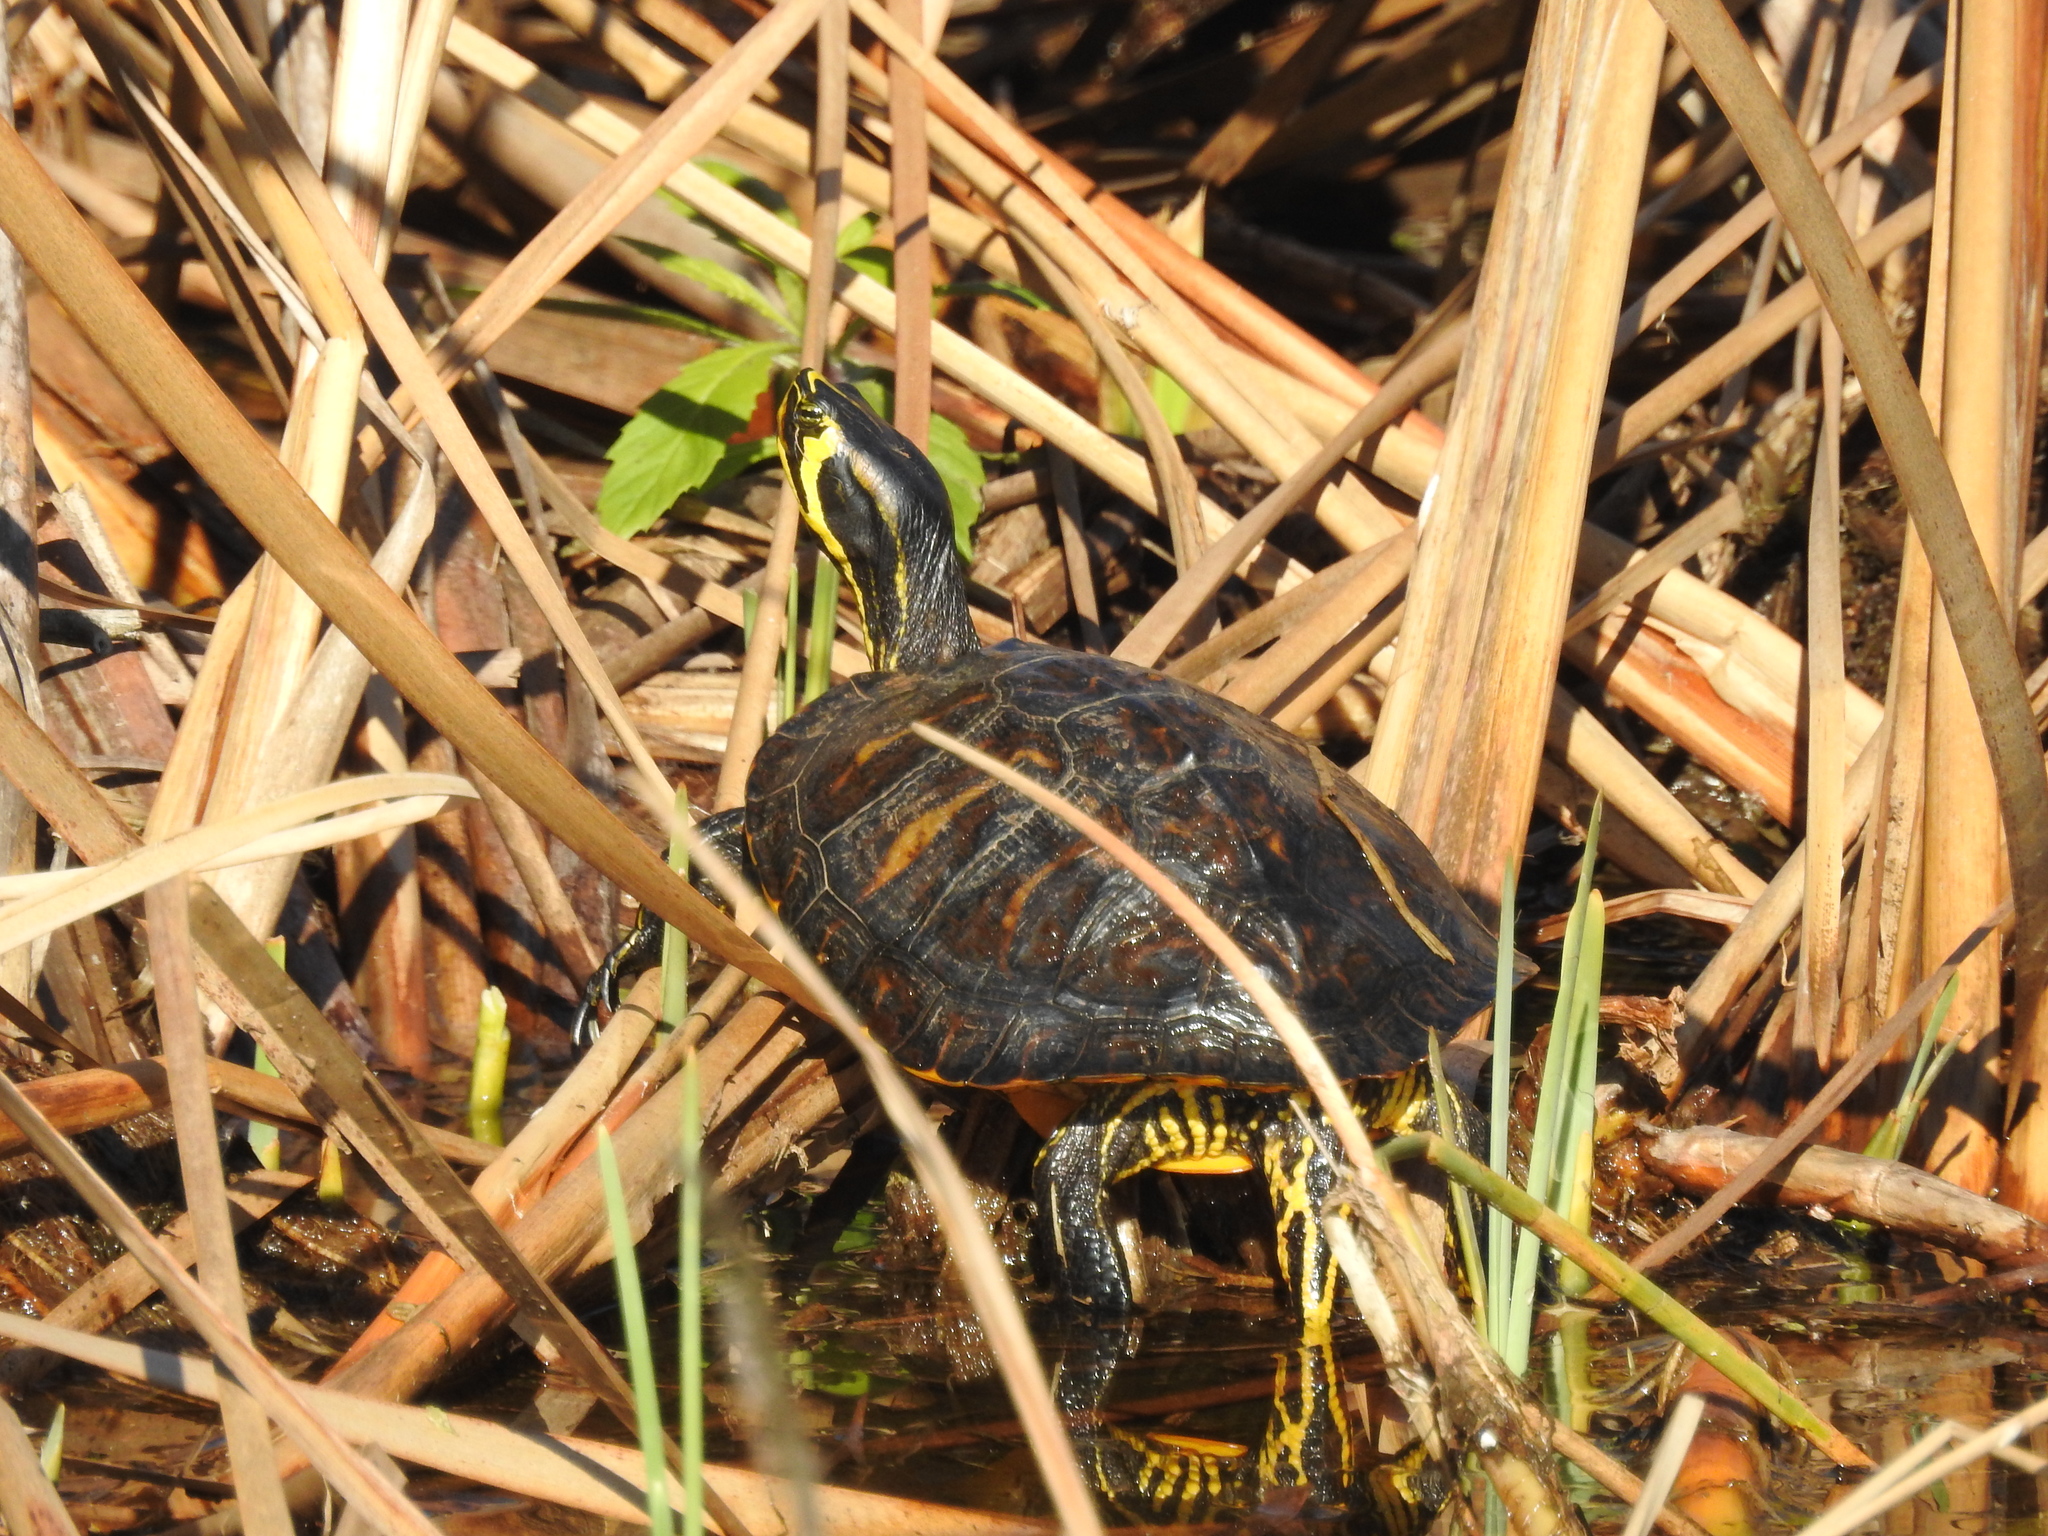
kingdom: Animalia
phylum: Chordata
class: Testudines
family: Emydidae
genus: Trachemys
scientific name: Trachemys scripta
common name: Slider
